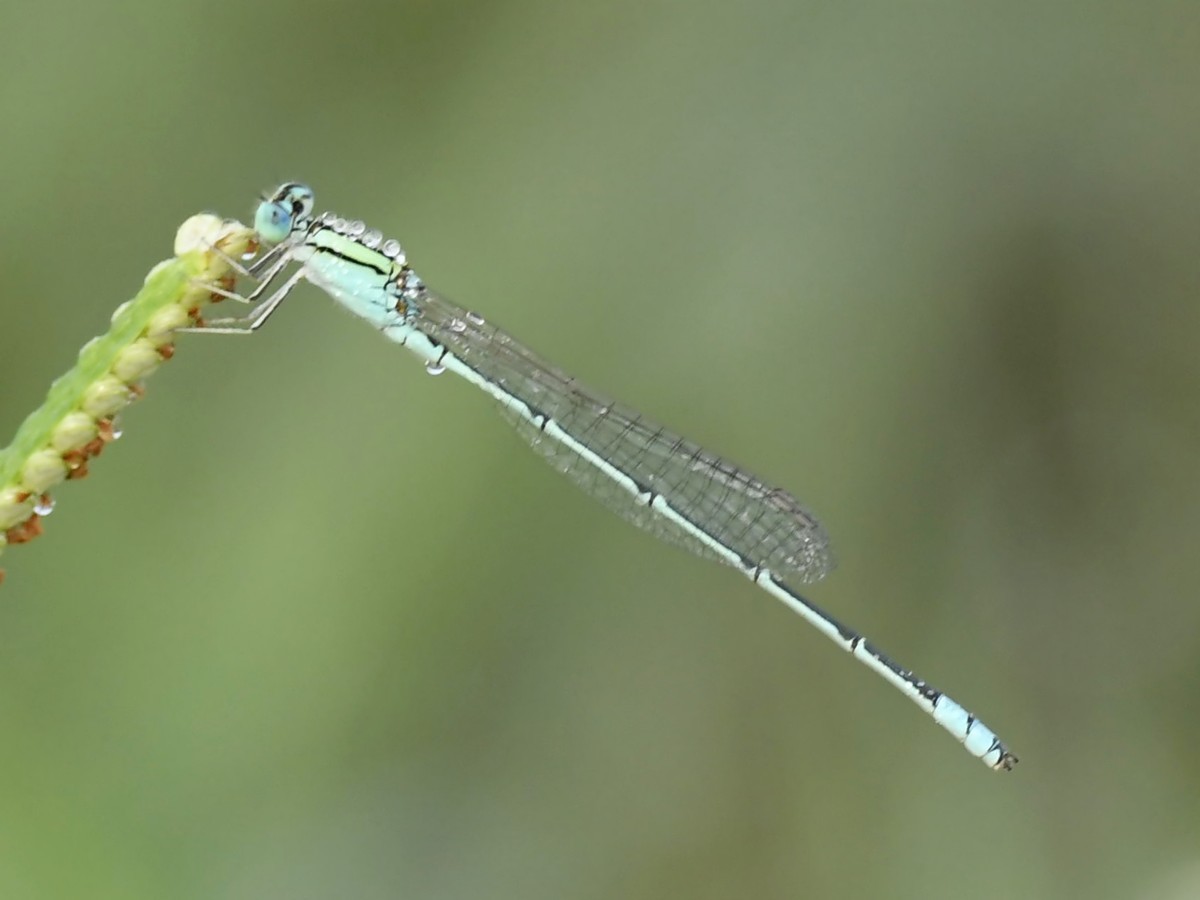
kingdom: Animalia
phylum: Arthropoda
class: Insecta
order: Odonata
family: Coenagrionidae
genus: Pseudagrion
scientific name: Pseudagrion decorum
